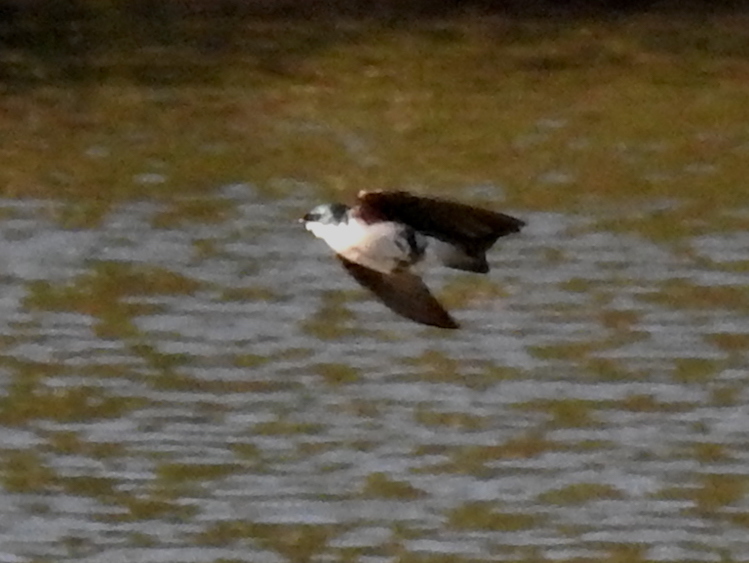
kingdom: Animalia
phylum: Chordata
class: Aves
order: Passeriformes
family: Hirundinidae
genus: Tachycineta
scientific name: Tachycineta bicolor
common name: Tree swallow
